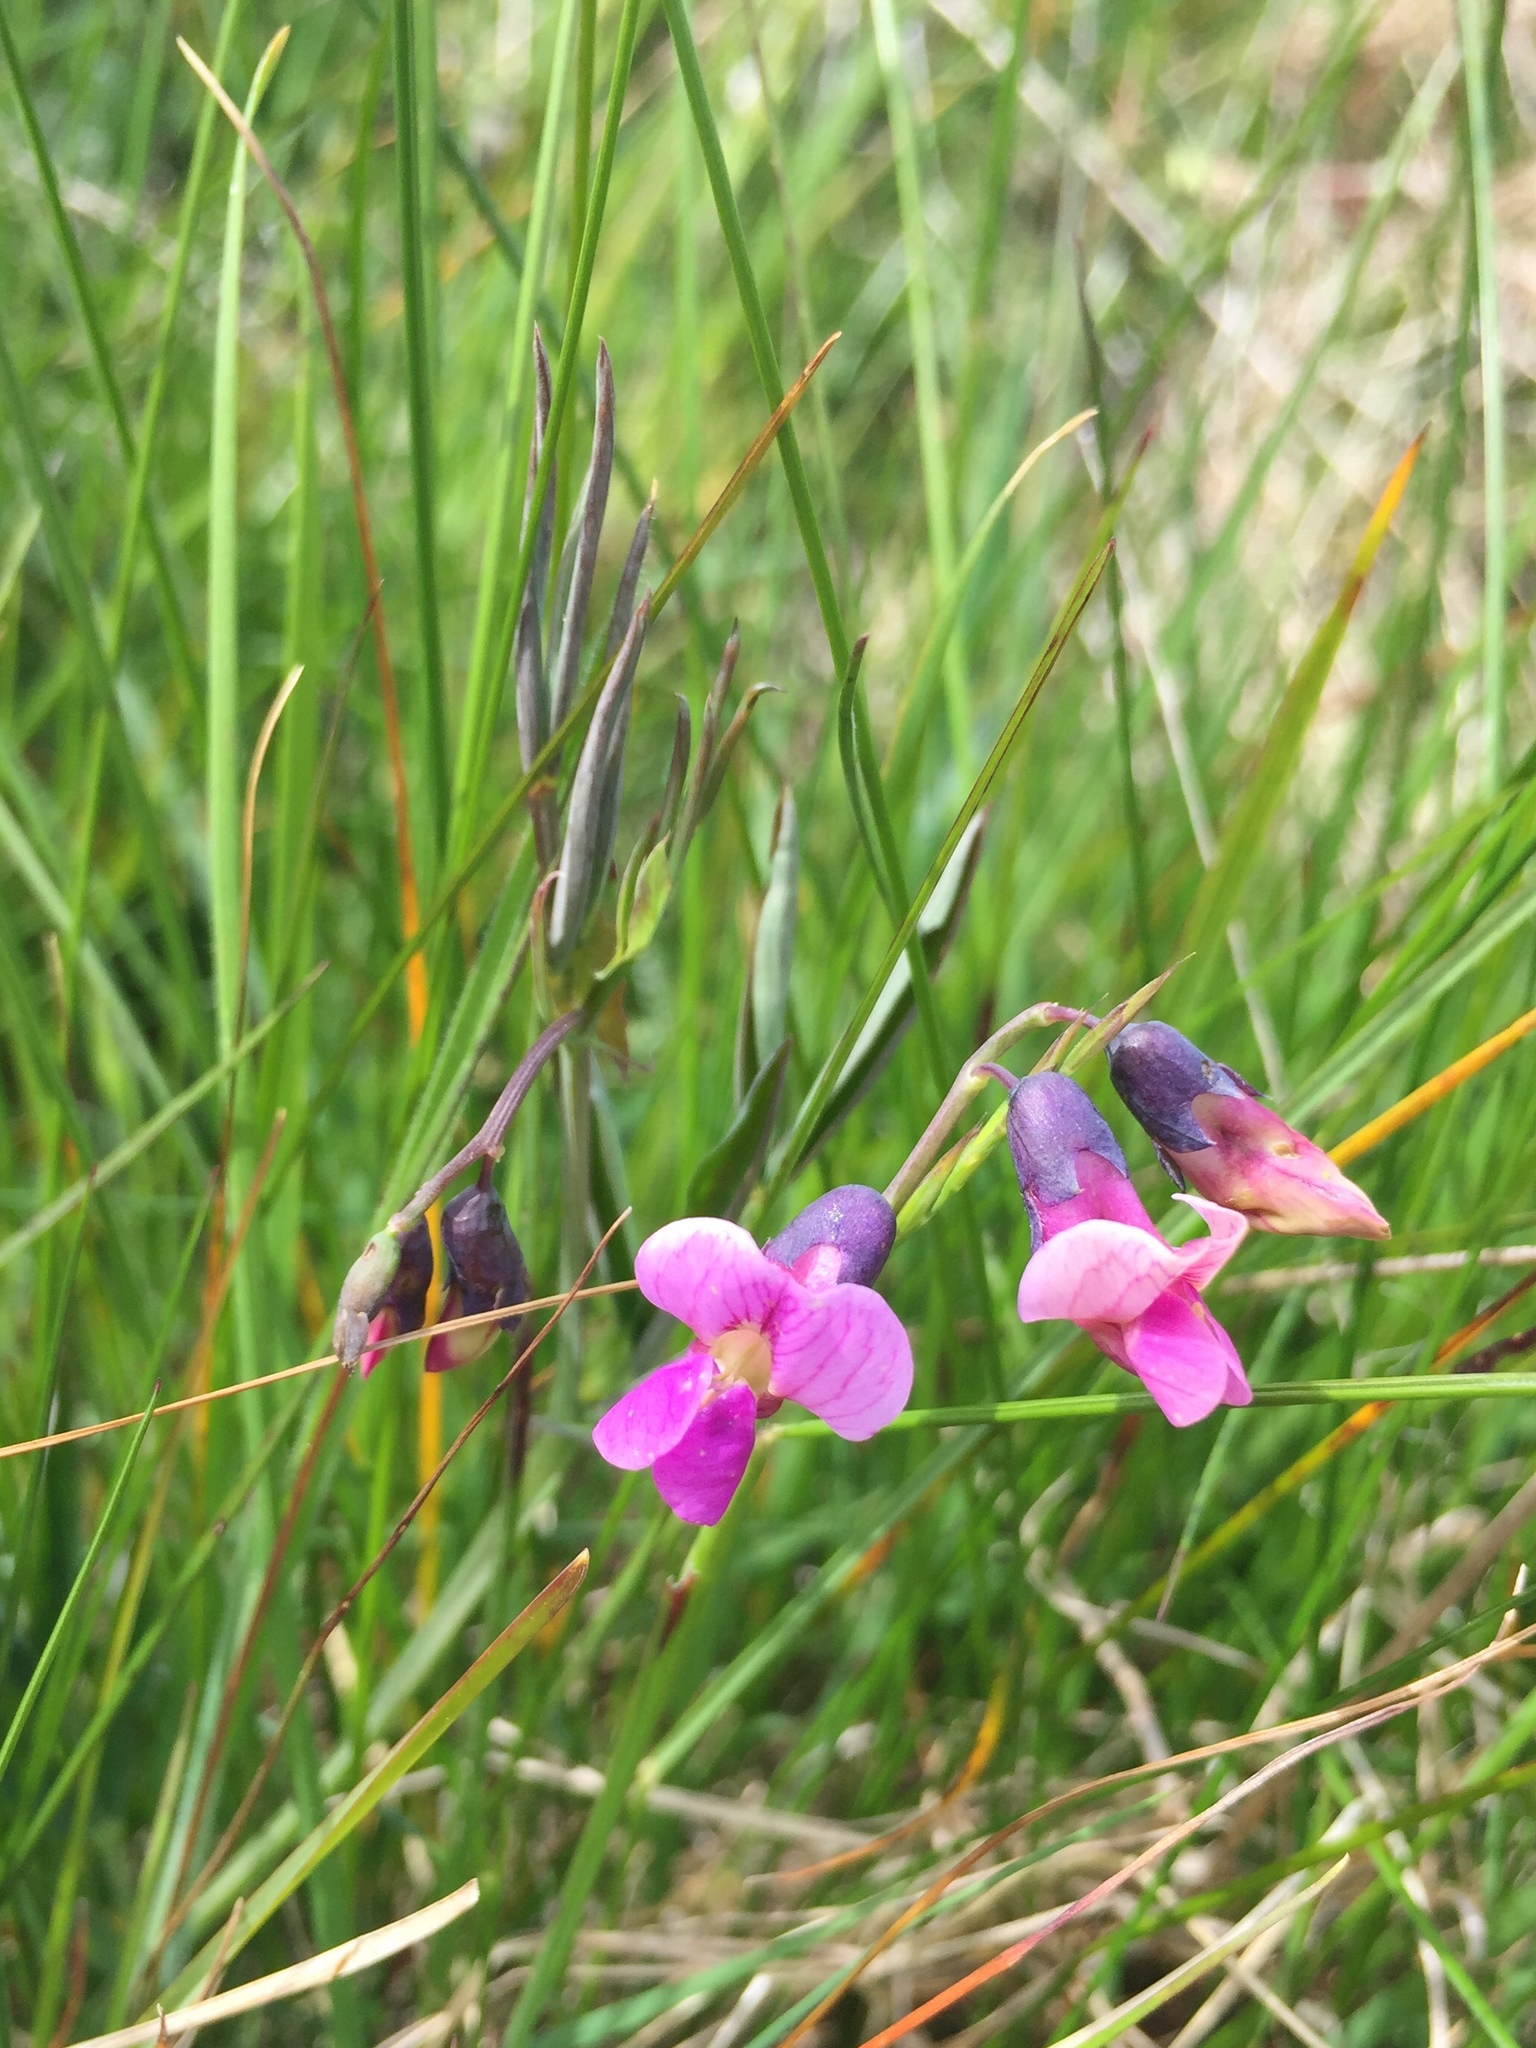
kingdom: Plantae
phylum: Tracheophyta
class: Magnoliopsida
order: Fabales
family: Fabaceae
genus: Lathyrus
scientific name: Lathyrus linifolius
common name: Bitter-vetch
